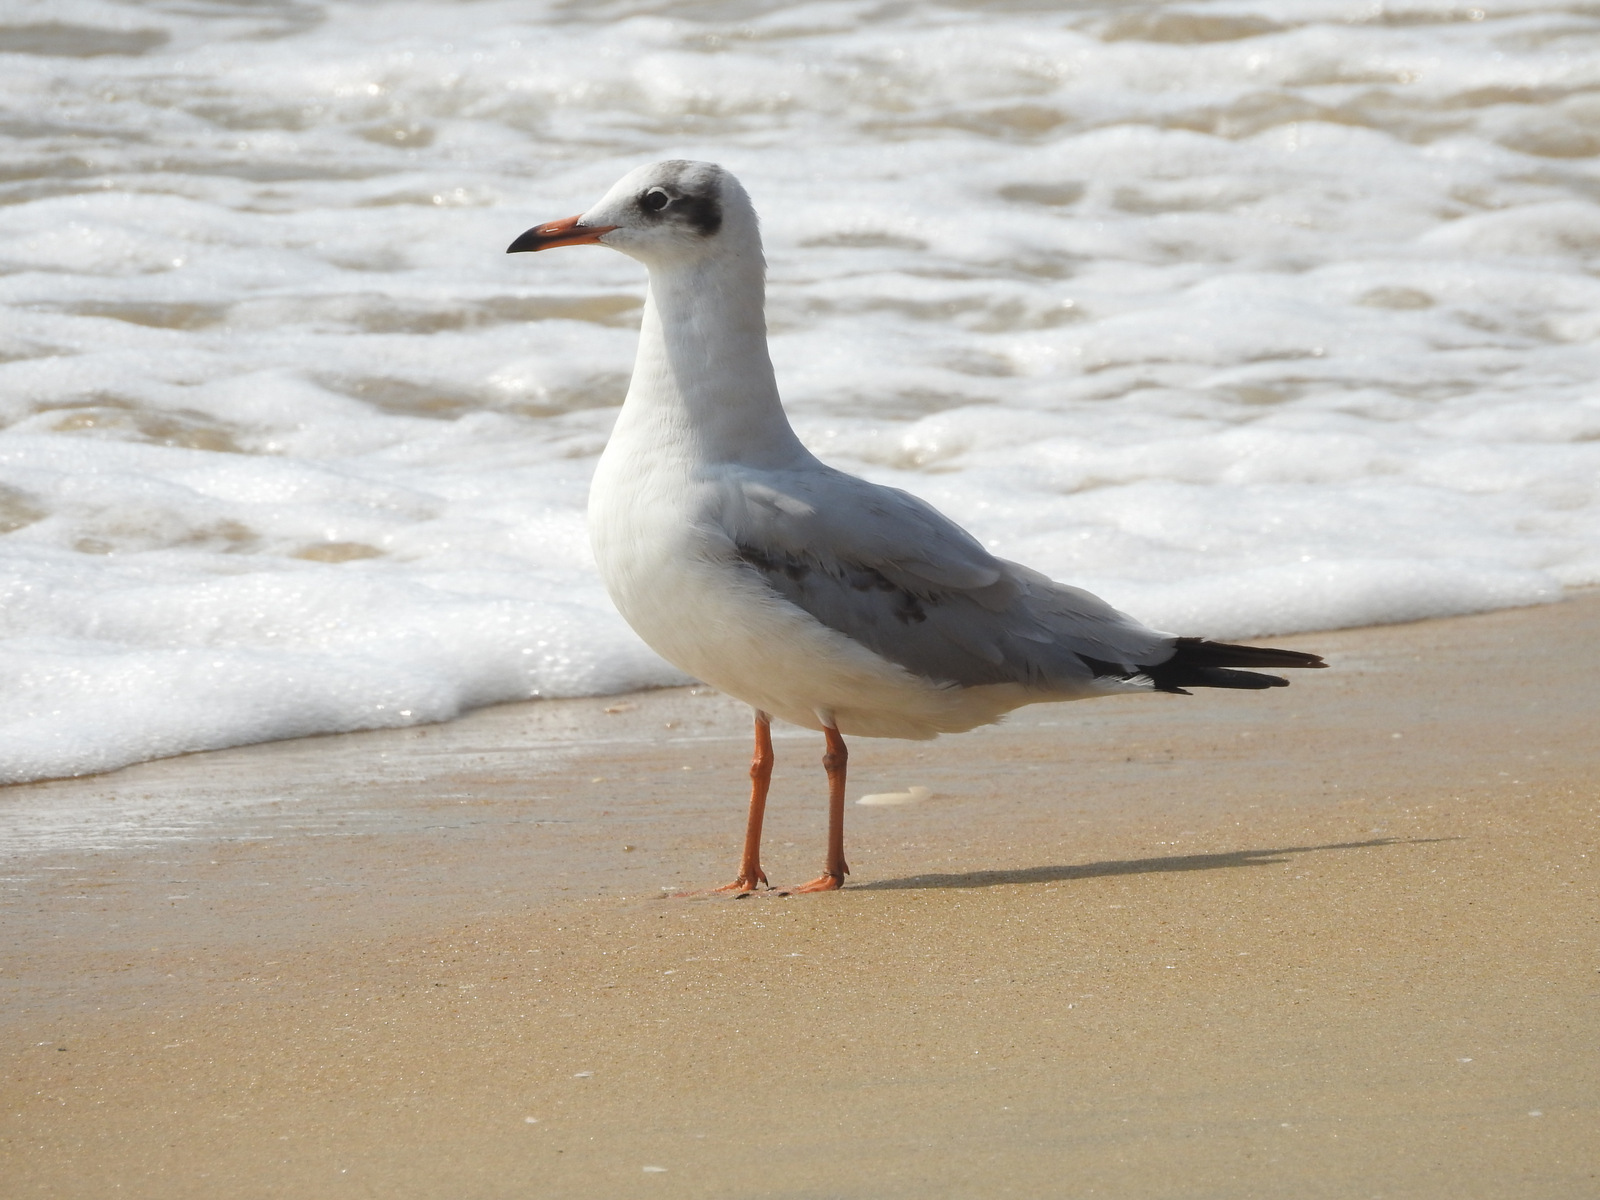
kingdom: Animalia
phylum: Chordata
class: Aves
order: Charadriiformes
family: Laridae
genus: Chroicocephalus
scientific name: Chroicocephalus ridibundus
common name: Black-headed gull
